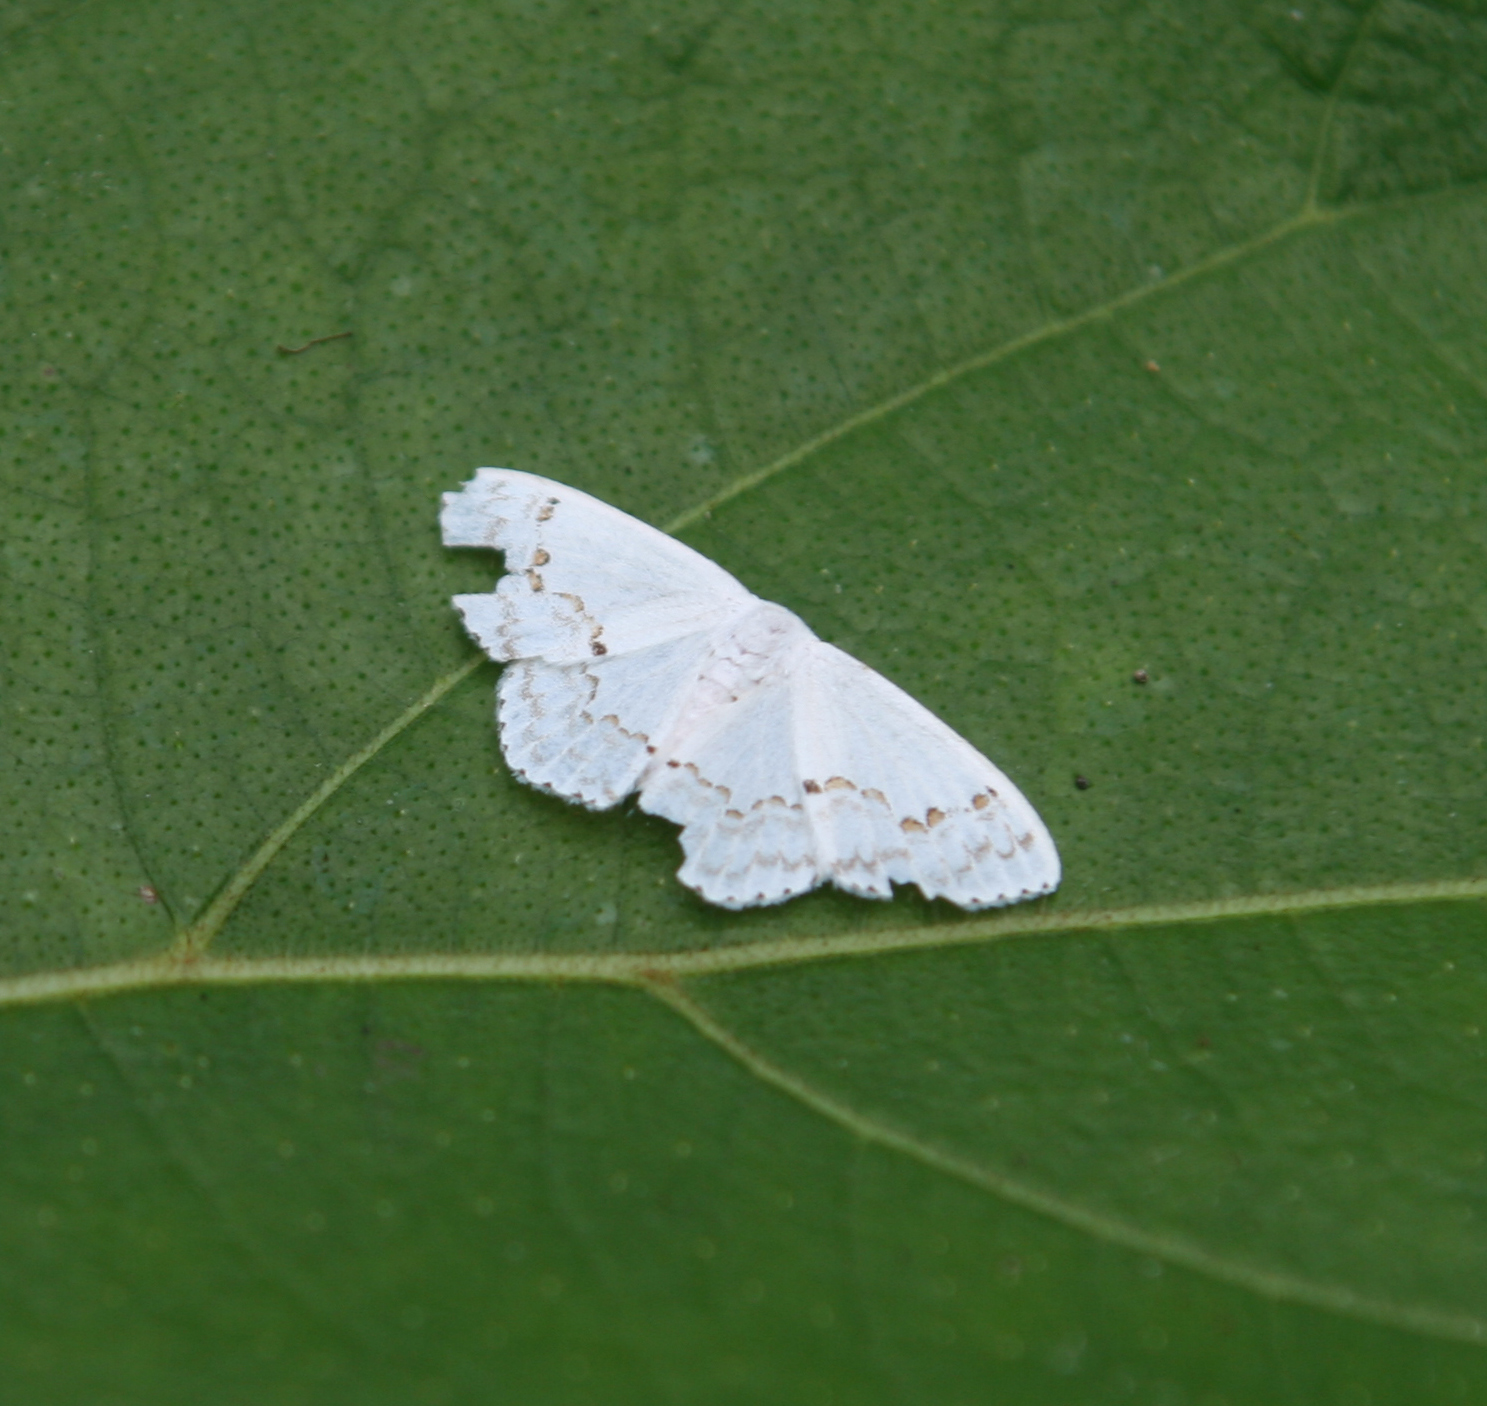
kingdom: Animalia
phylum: Arthropoda
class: Insecta
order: Lepidoptera
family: Drepanidae
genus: Teldenia
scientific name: Teldenia specca
